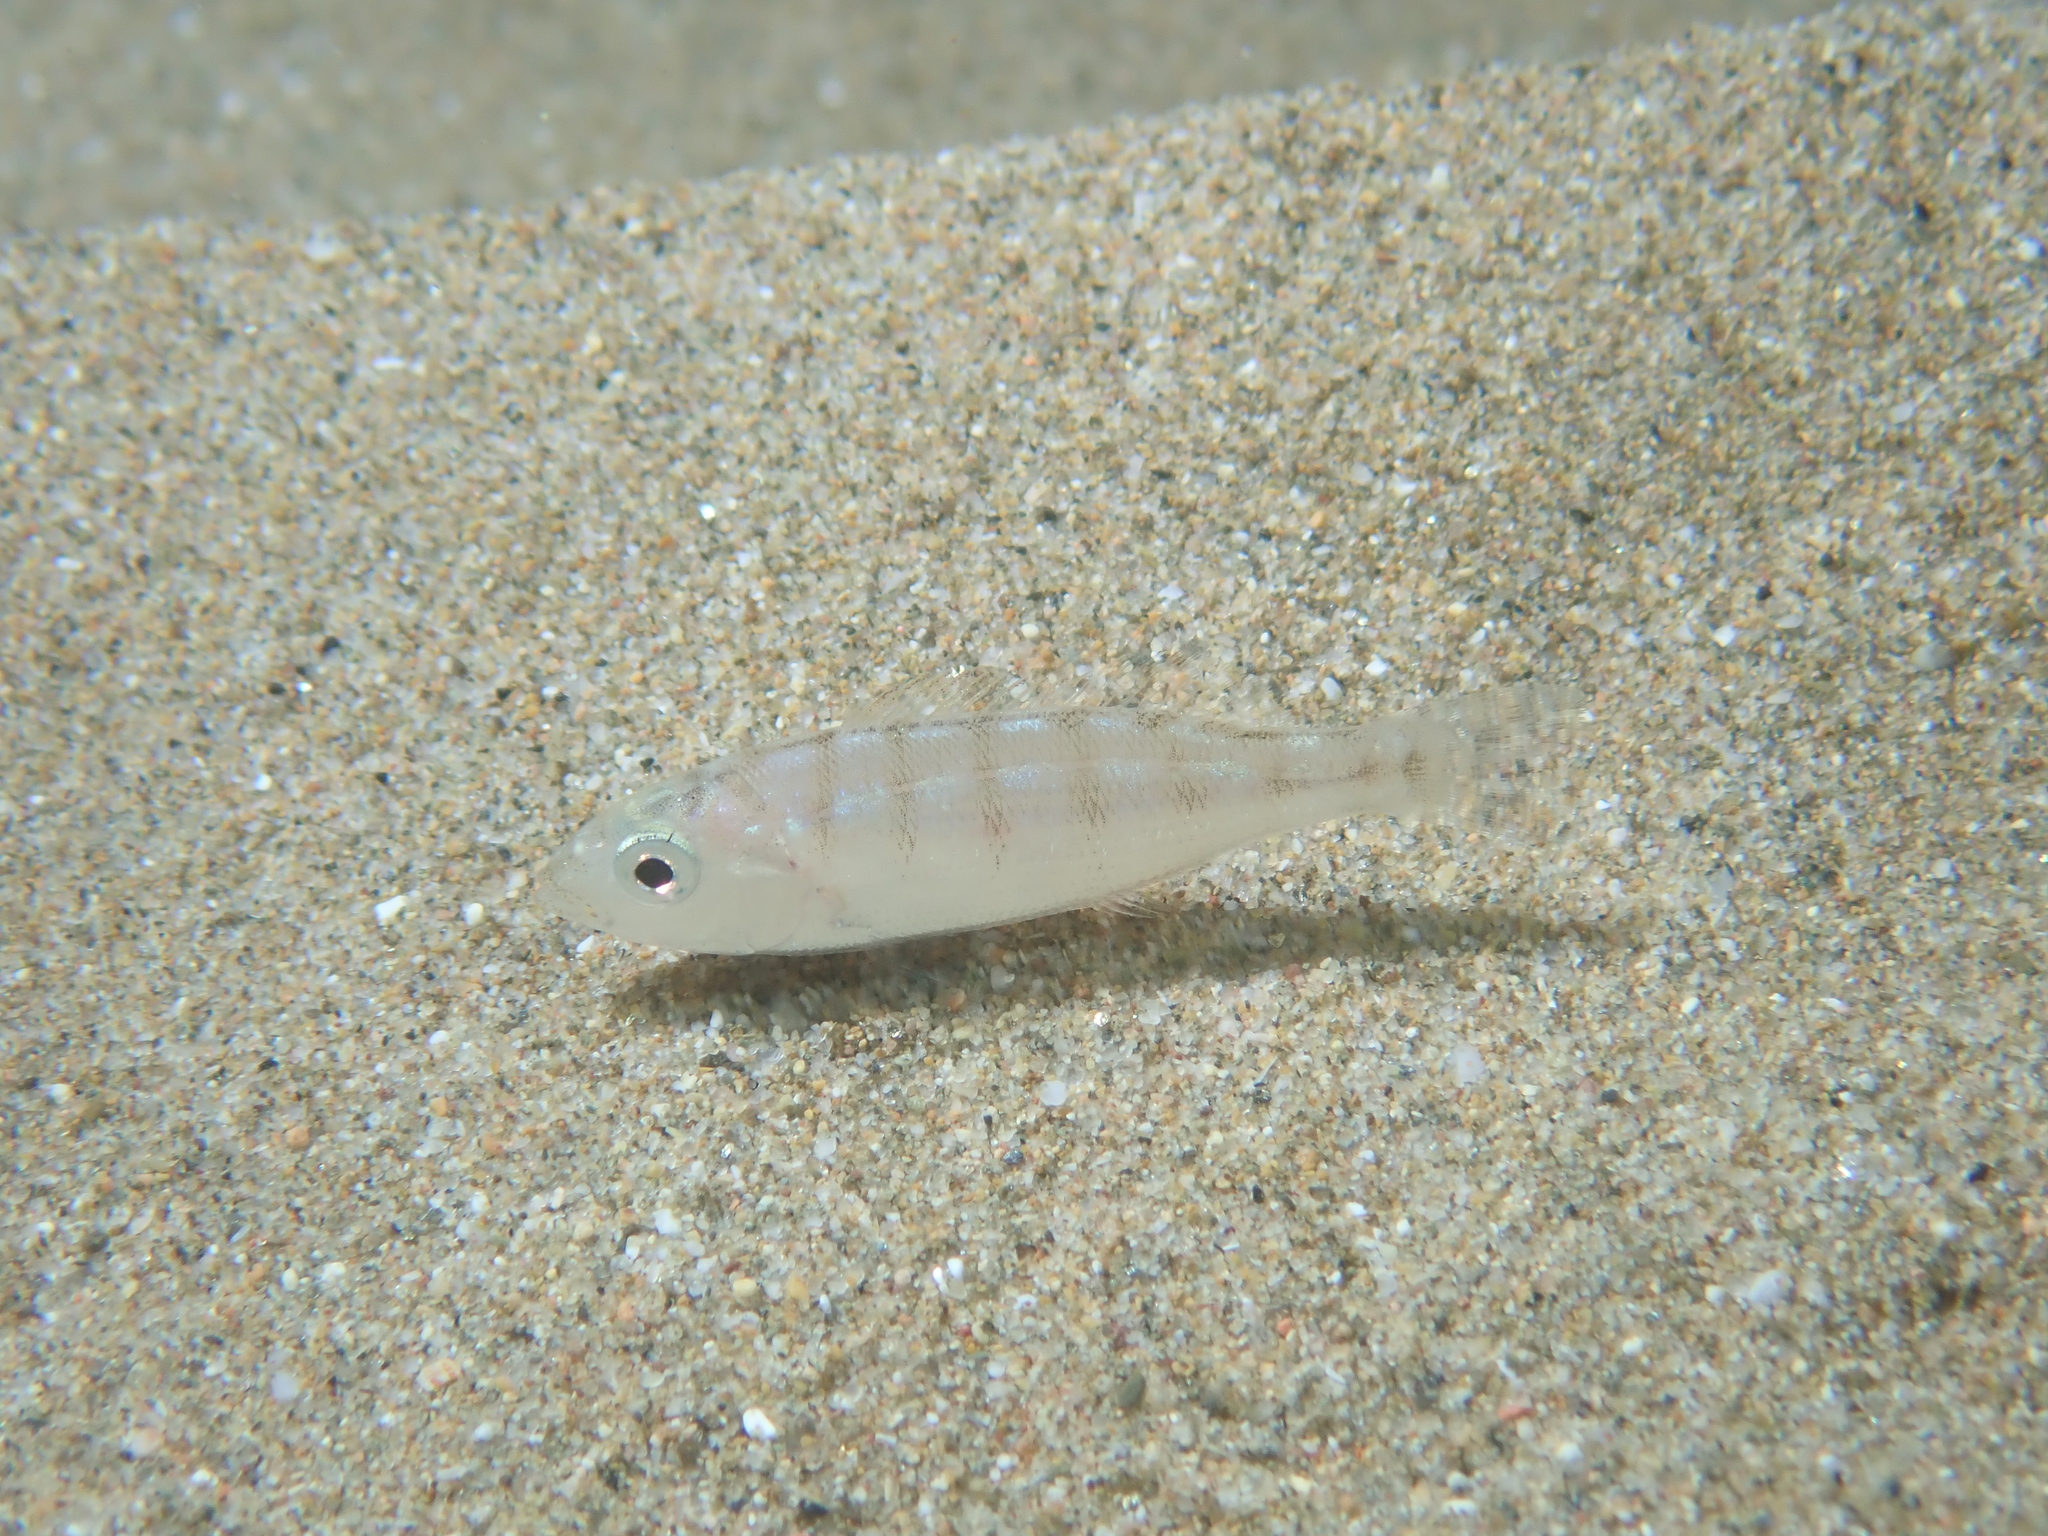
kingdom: Animalia
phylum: Chordata
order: Perciformes
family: Sparidae
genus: Lithognathus
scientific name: Lithognathus mormyrus
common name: Sand steenbras
